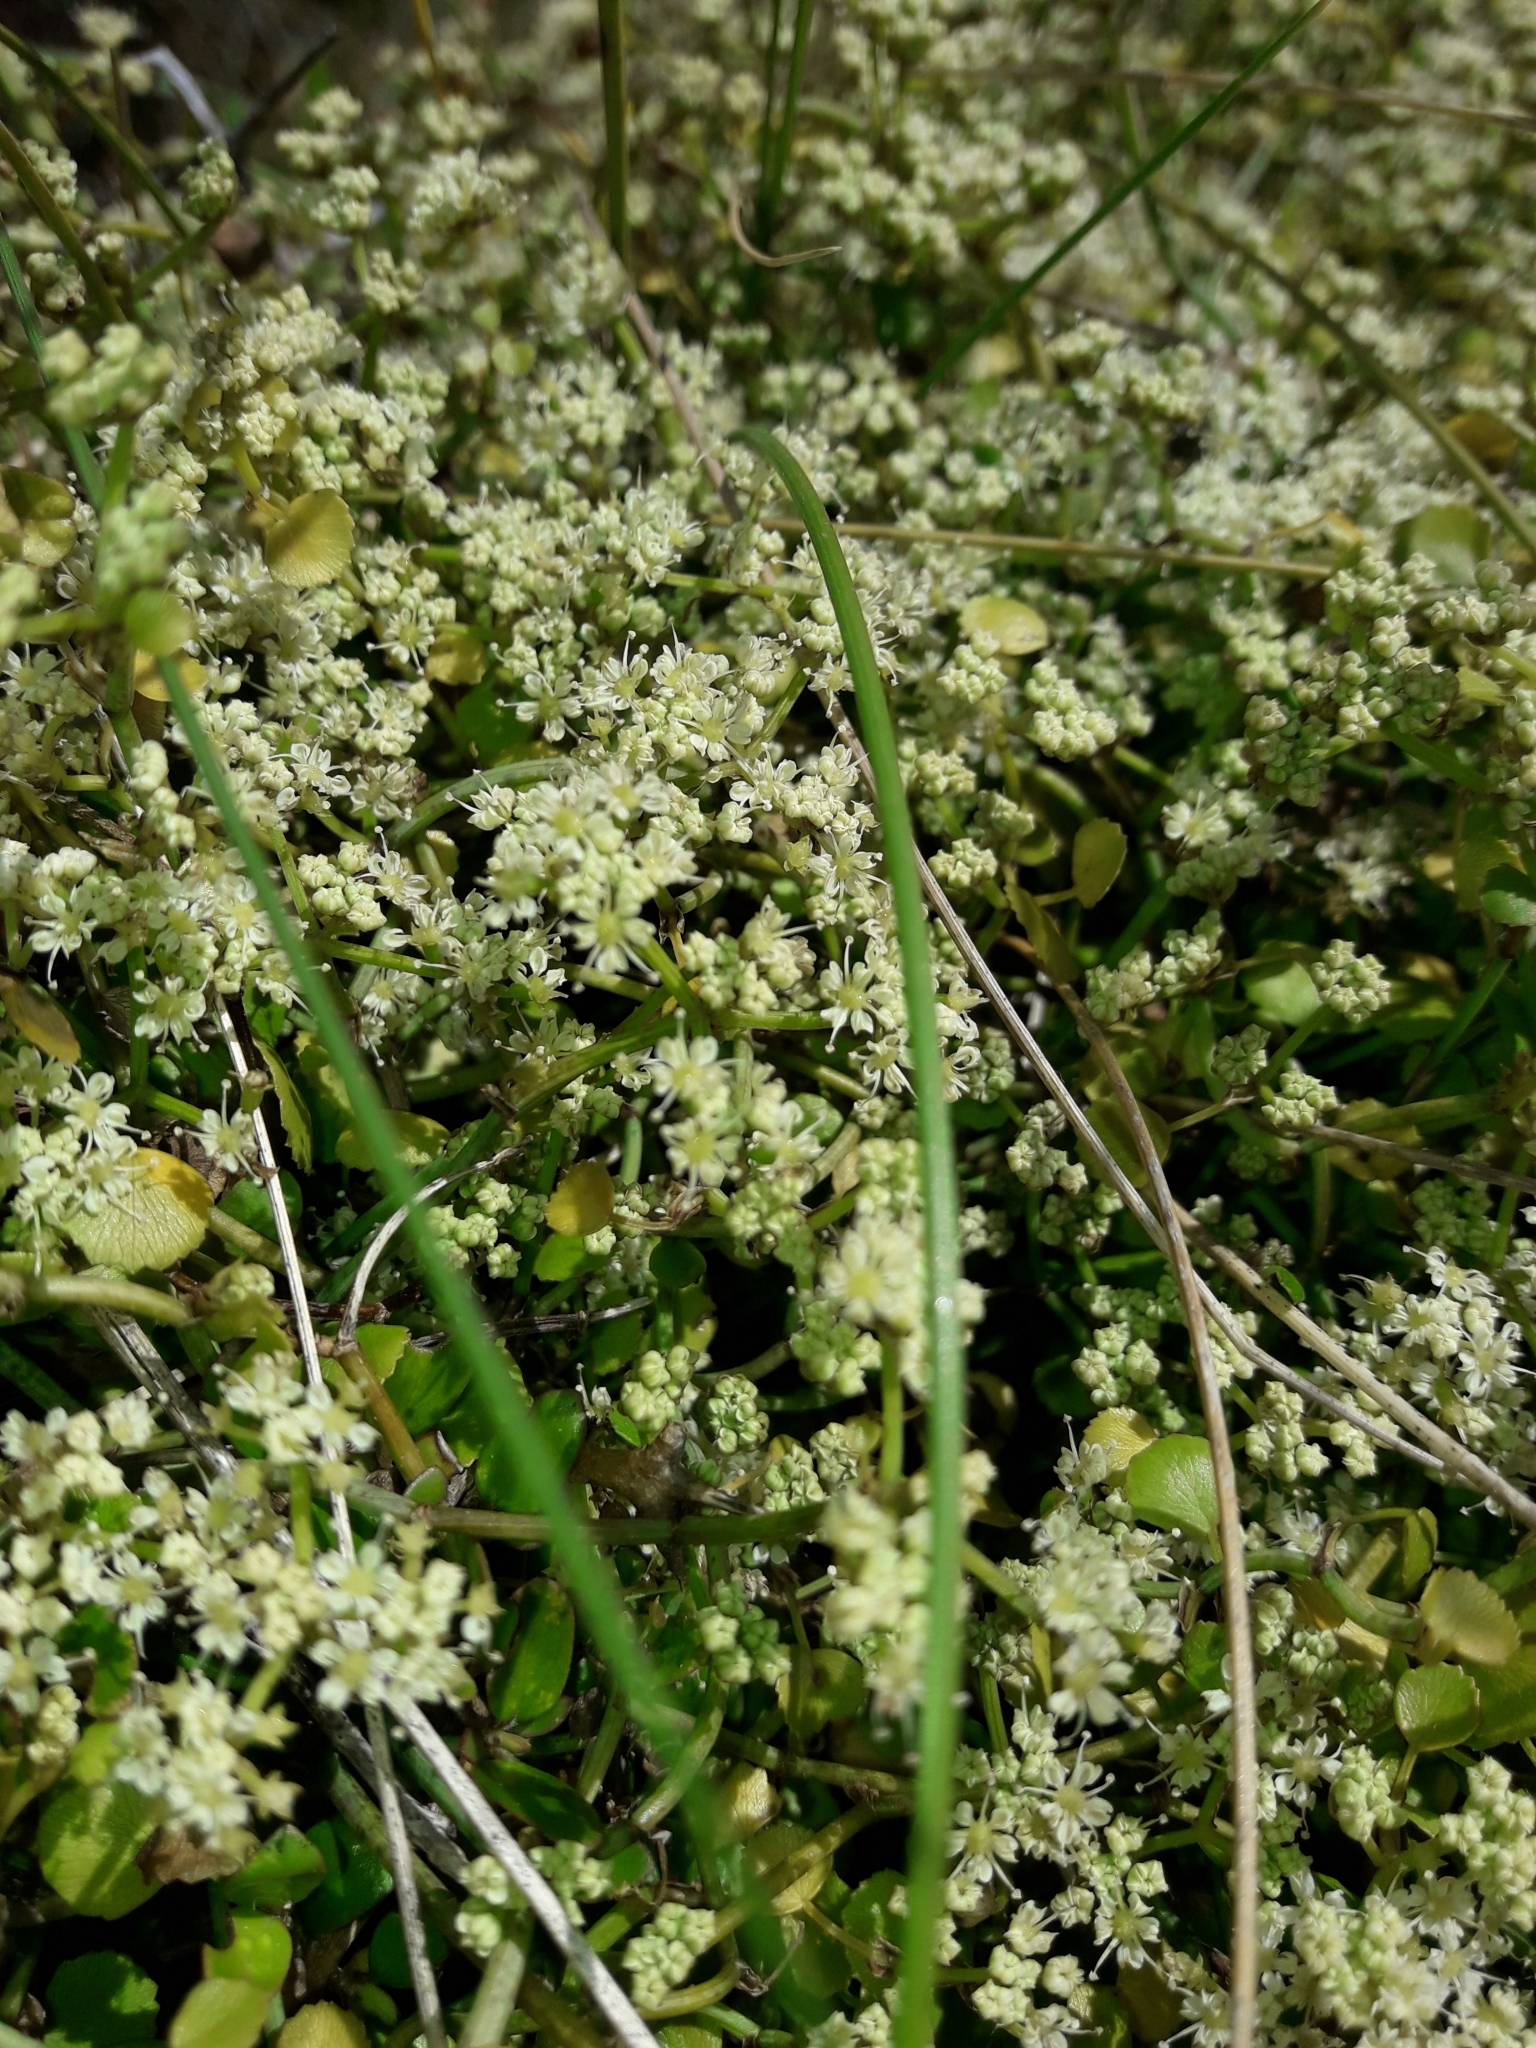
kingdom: Plantae
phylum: Tracheophyta
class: Magnoliopsida
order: Apiales
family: Apiaceae
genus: Scandia
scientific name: Scandia geniculata
